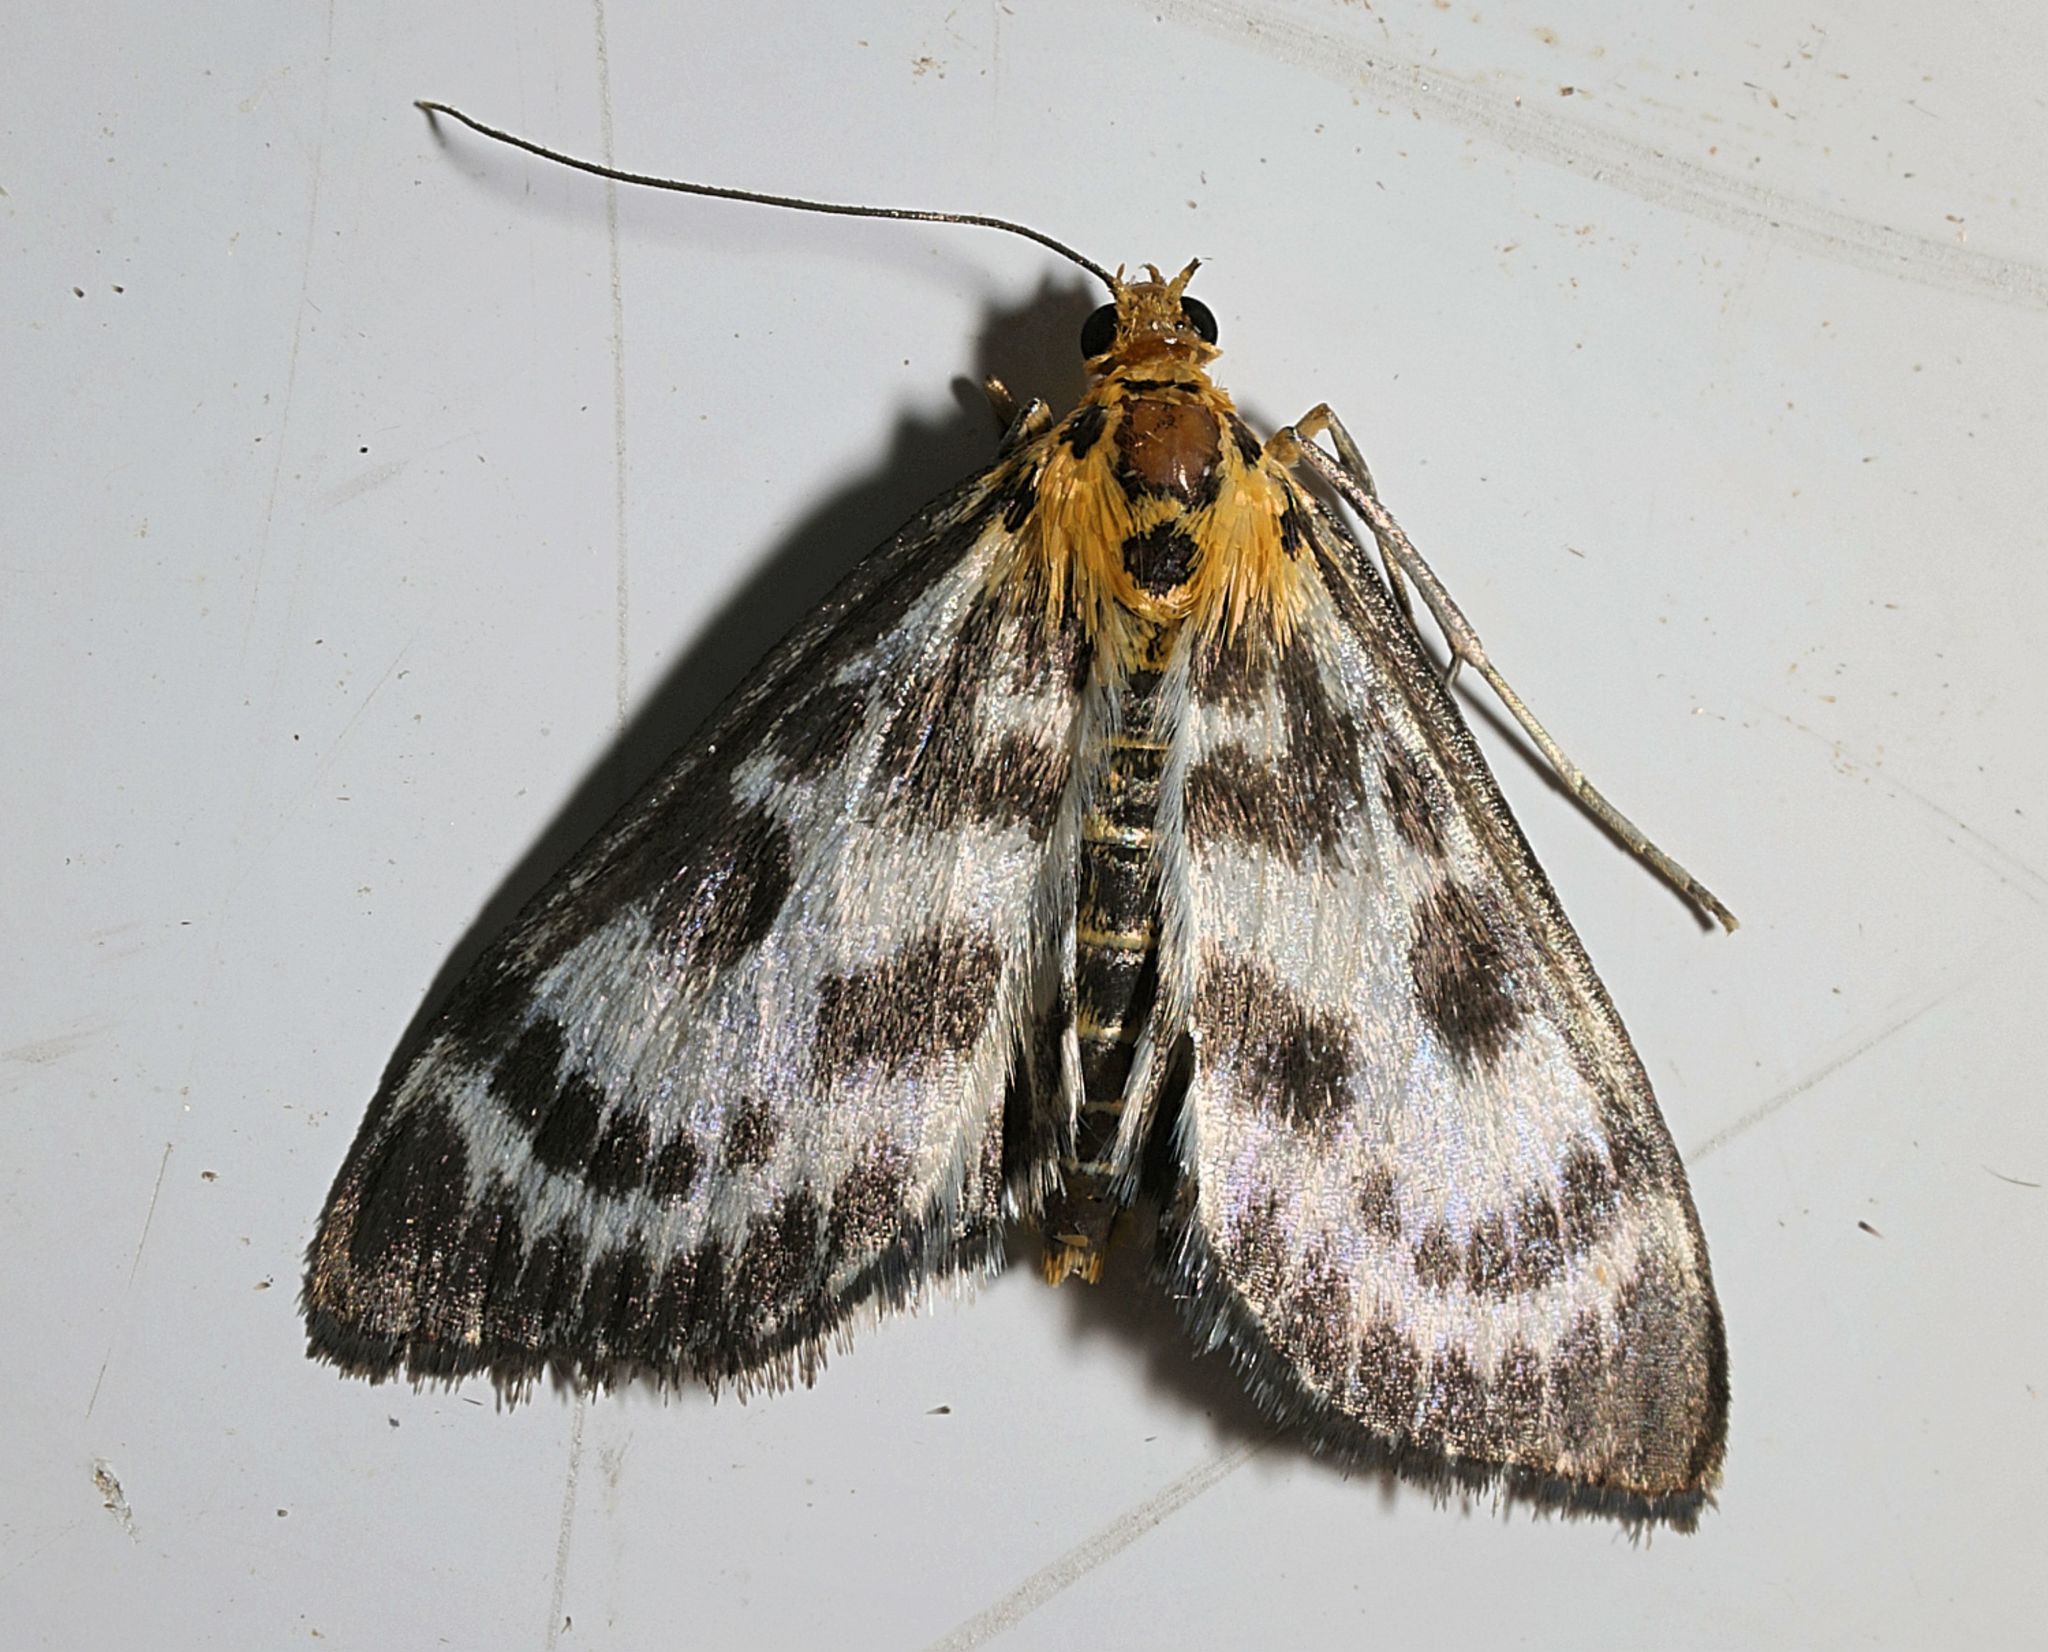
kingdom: Animalia
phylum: Arthropoda
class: Insecta
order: Lepidoptera
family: Crambidae
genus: Anania
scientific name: Anania hortulata
